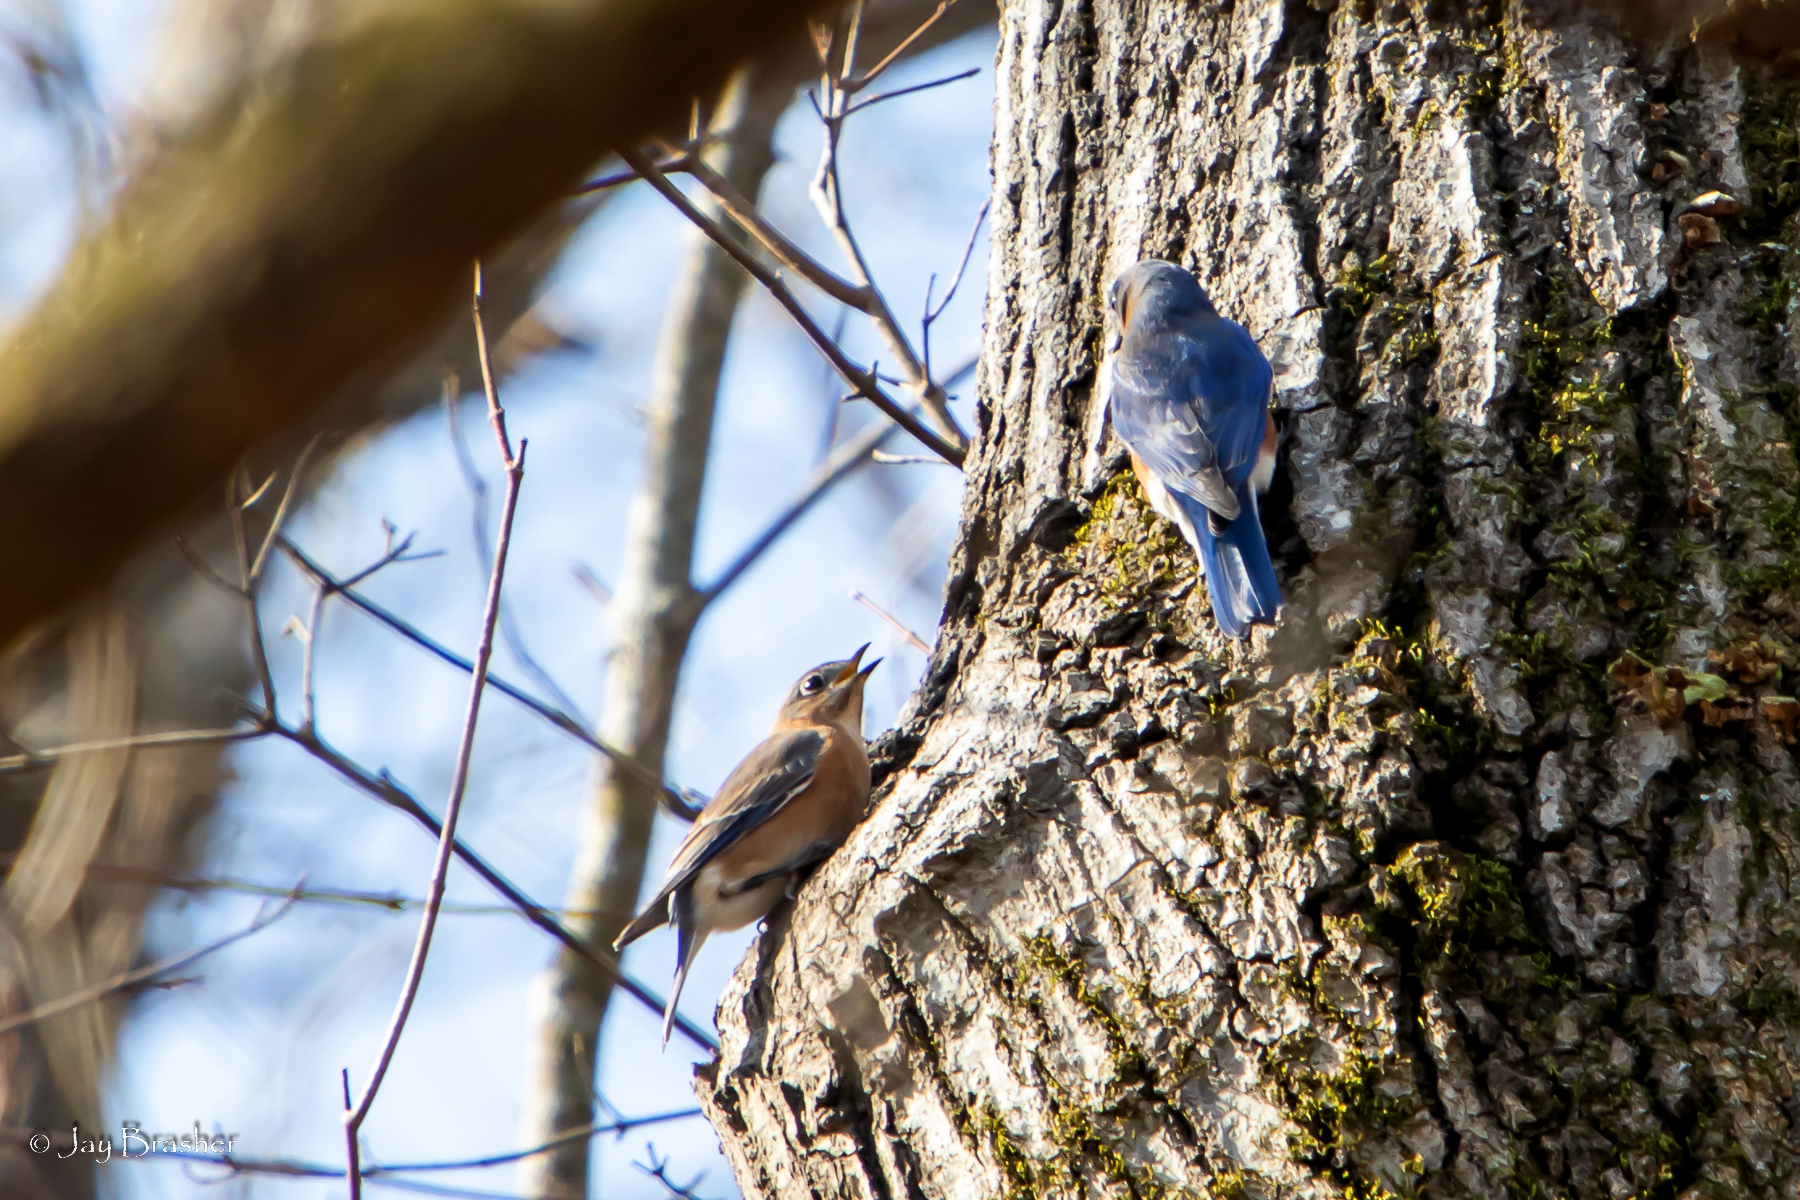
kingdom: Animalia
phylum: Chordata
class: Aves
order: Passeriformes
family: Turdidae
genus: Sialia
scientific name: Sialia sialis
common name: Eastern bluebird
